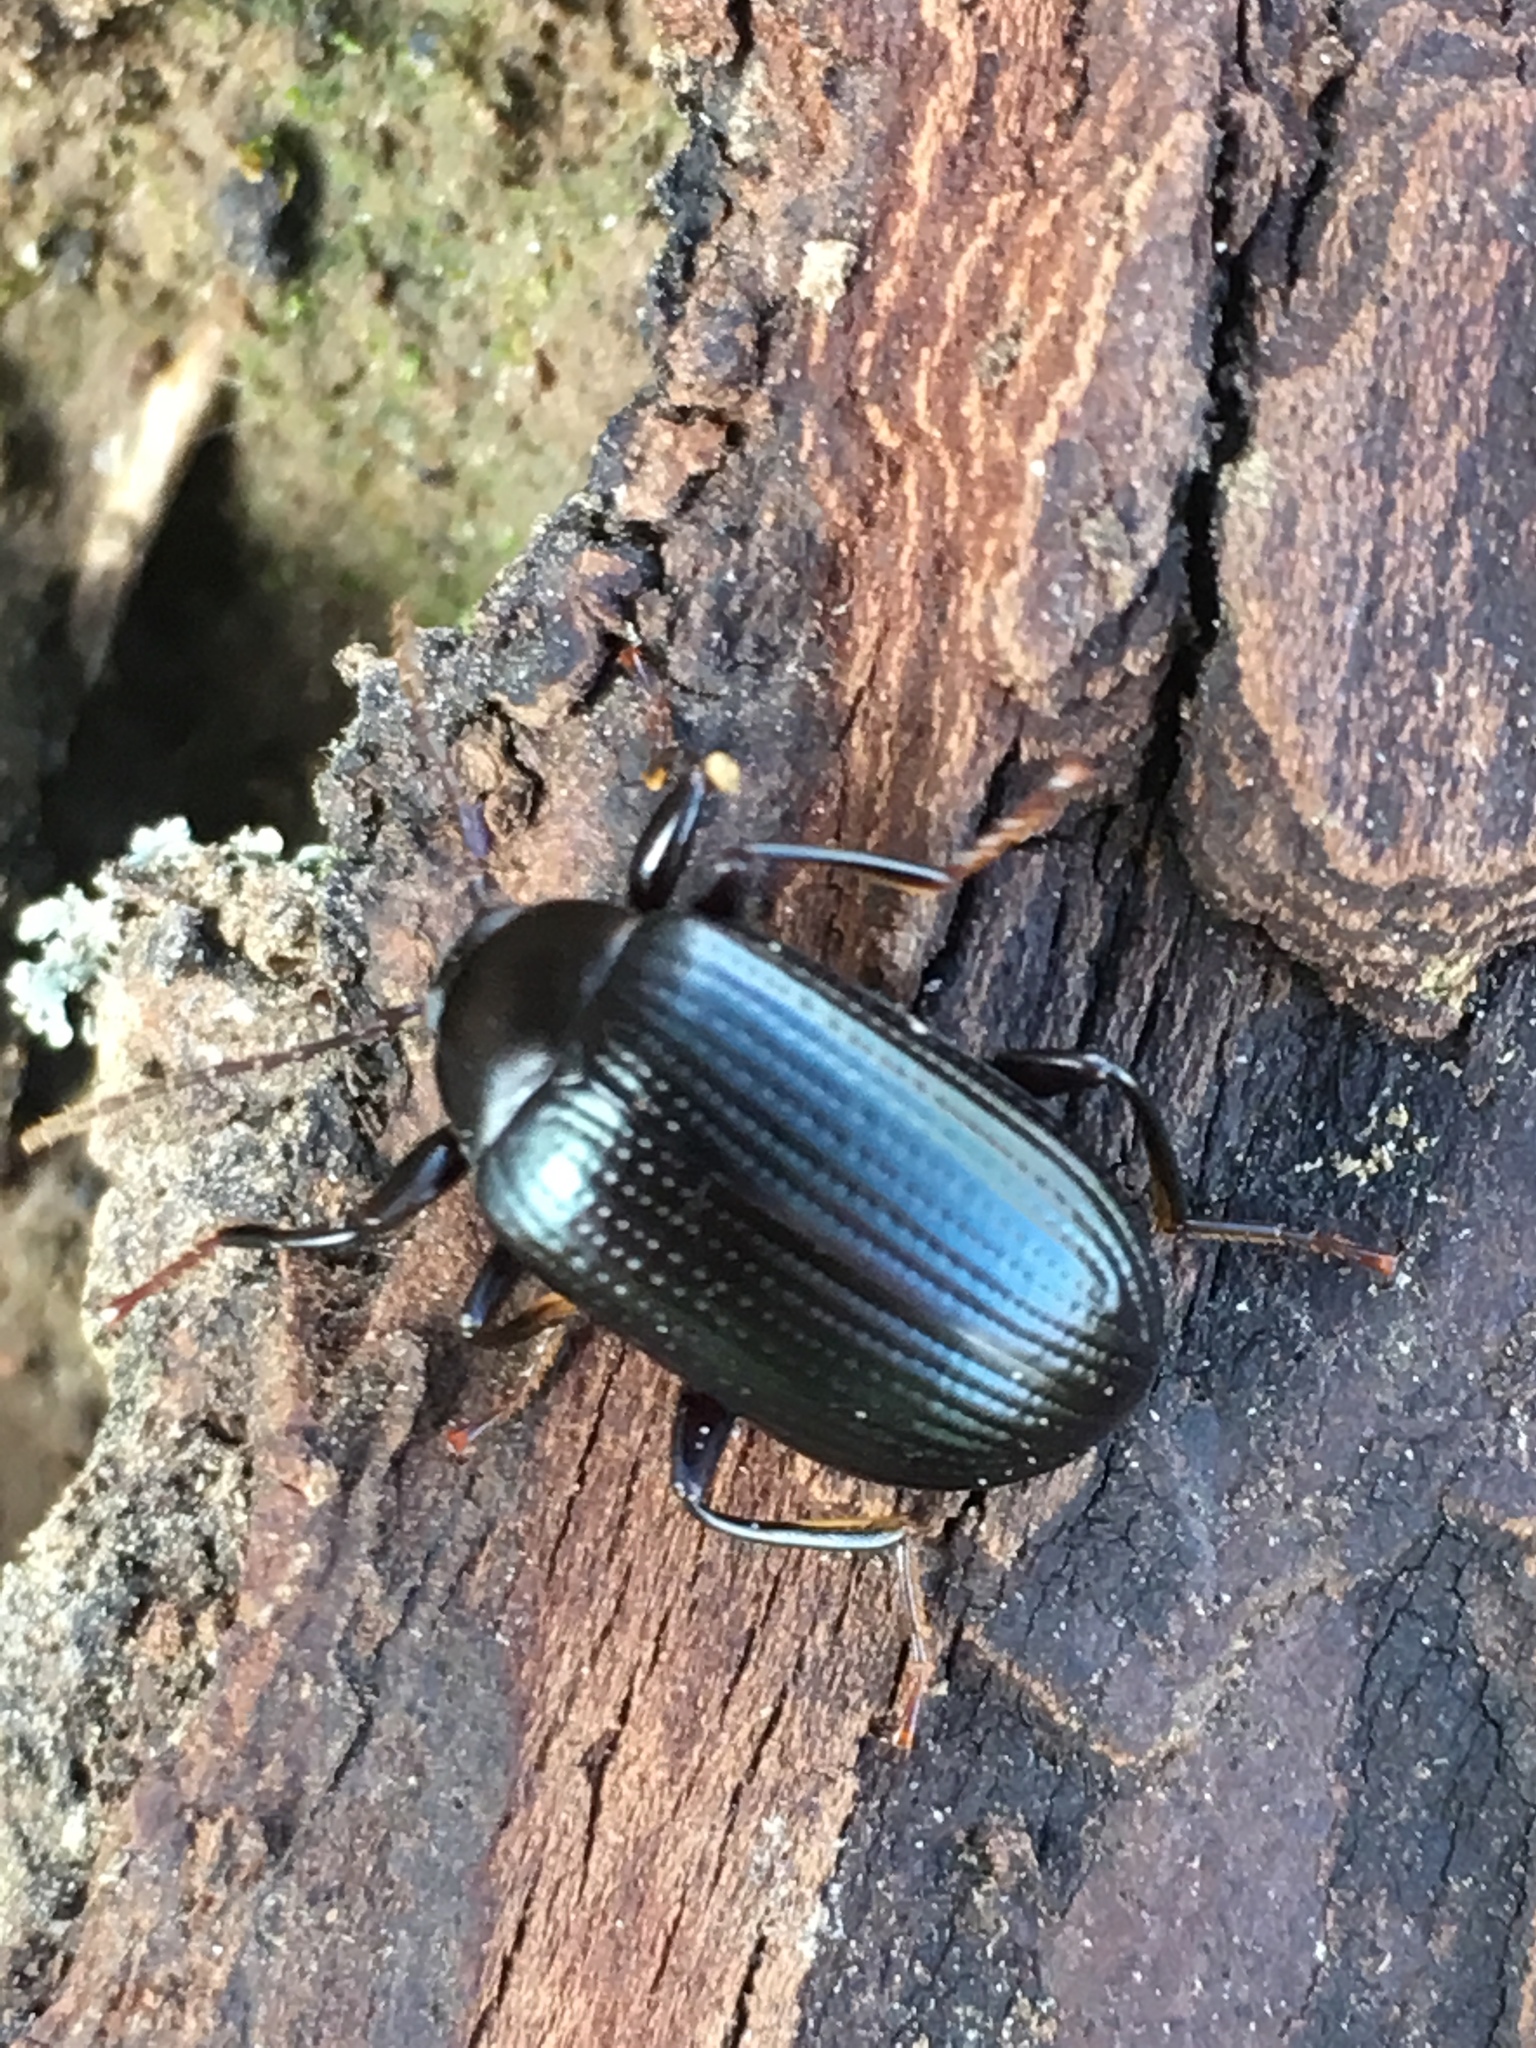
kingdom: Animalia
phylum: Arthropoda
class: Insecta
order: Coleoptera
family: Tenebrionidae
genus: Amarygmus
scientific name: Amarygmus
